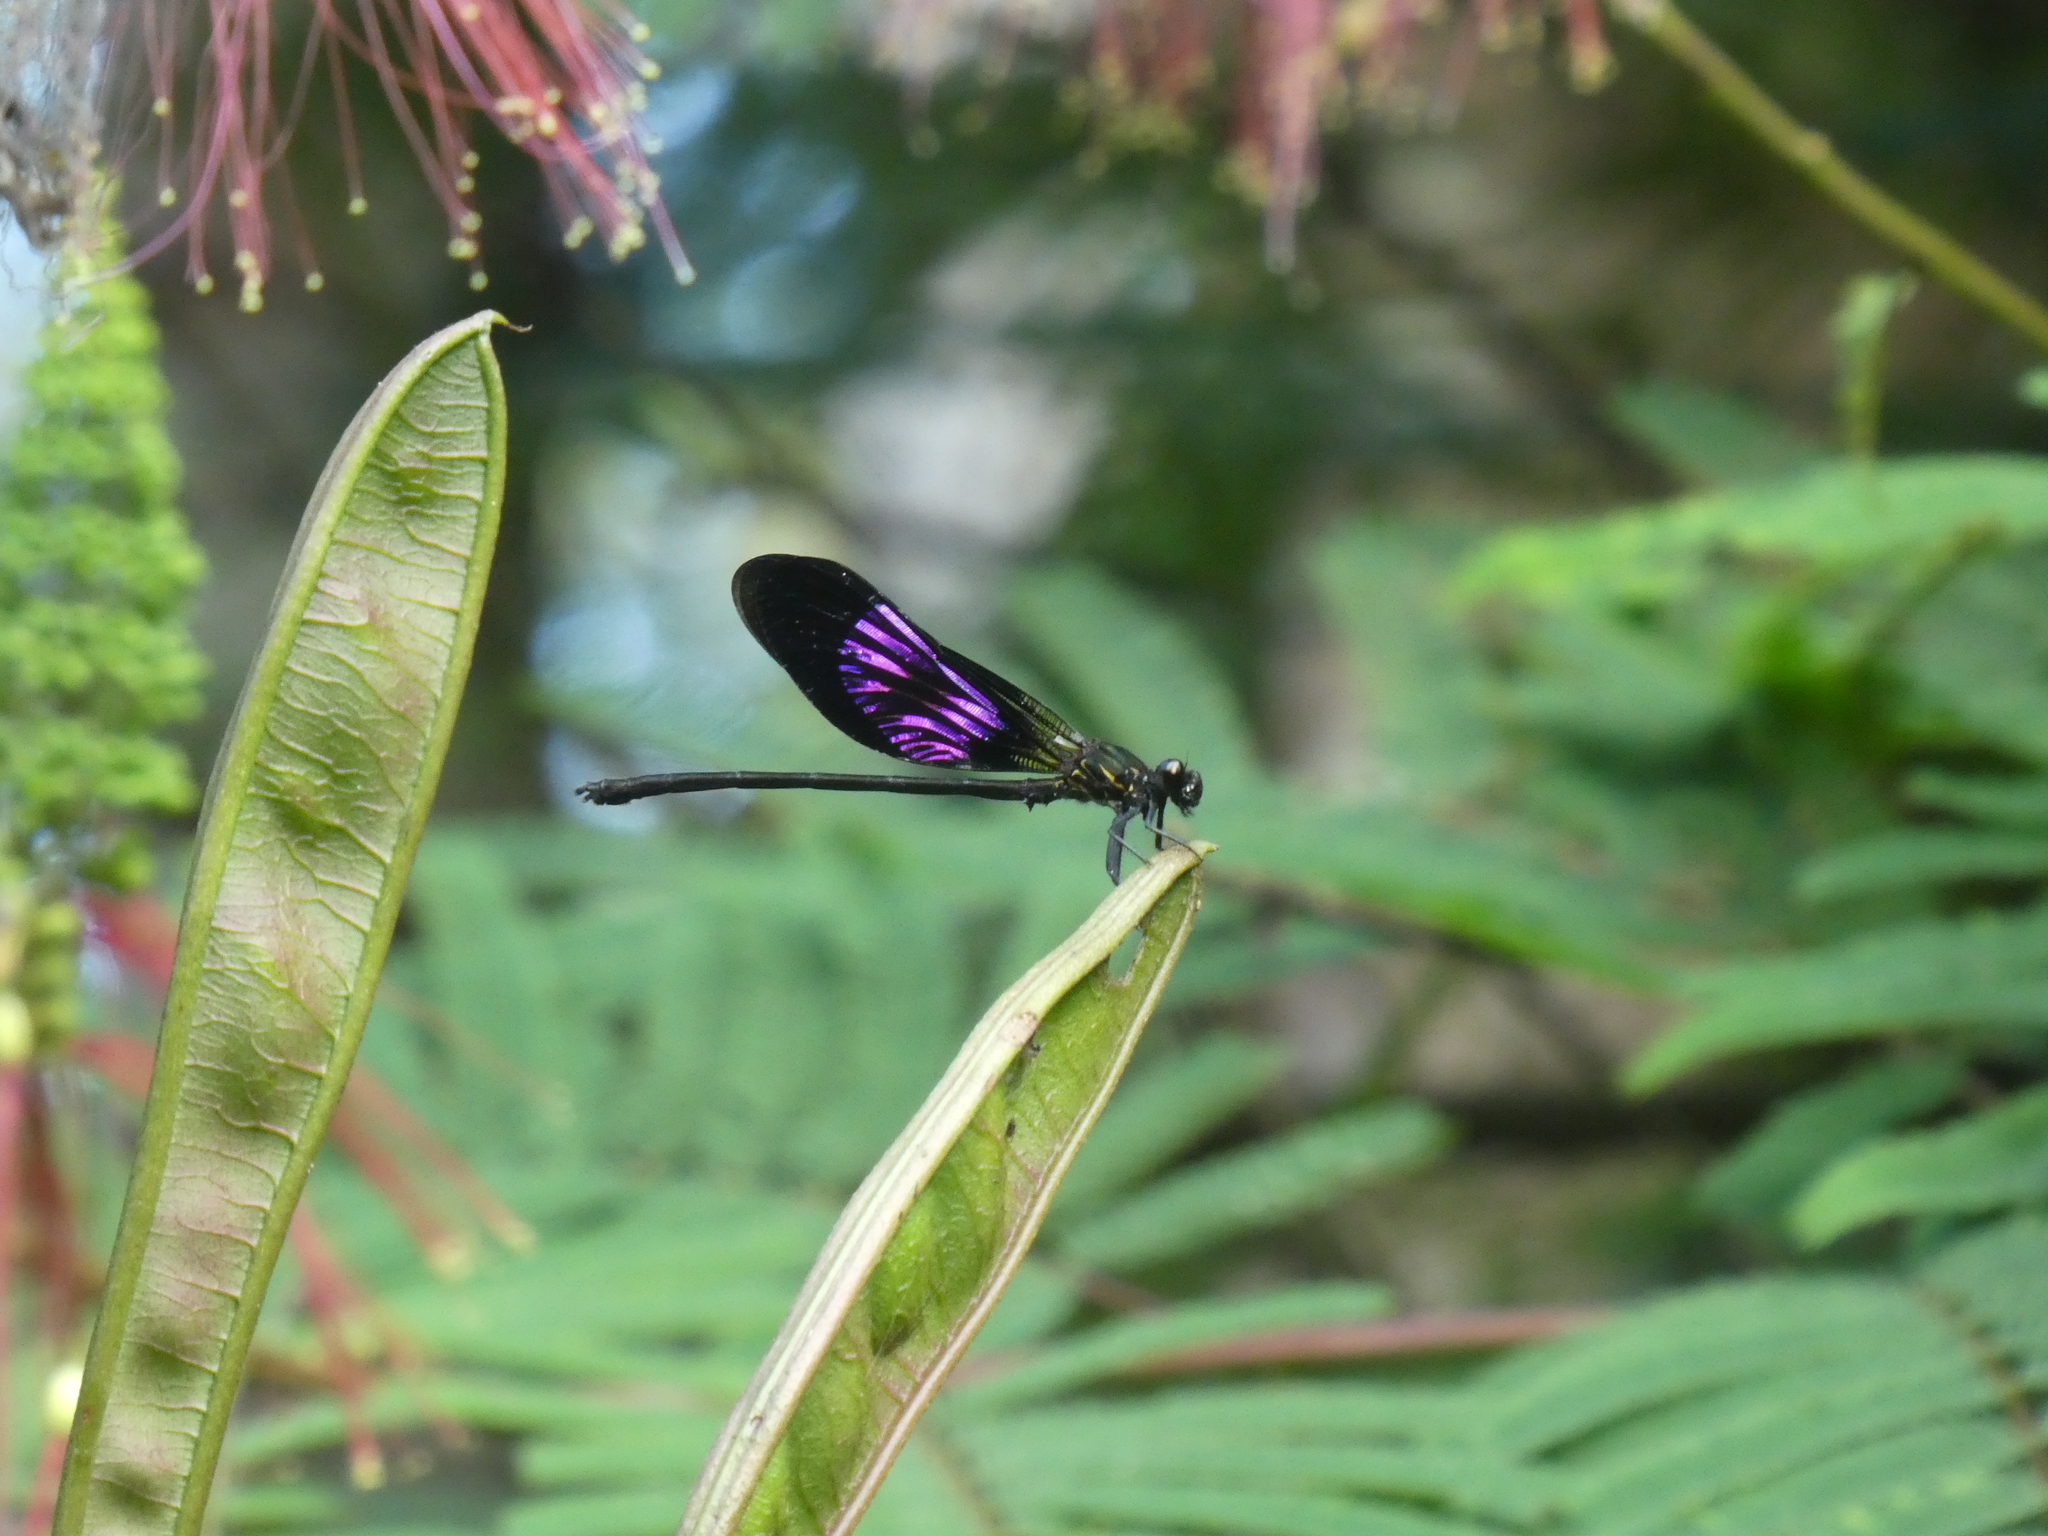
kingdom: Animalia
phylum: Arthropoda
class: Insecta
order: Odonata
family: Euphaeidae
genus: Euphaea
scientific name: Euphaea variegata
